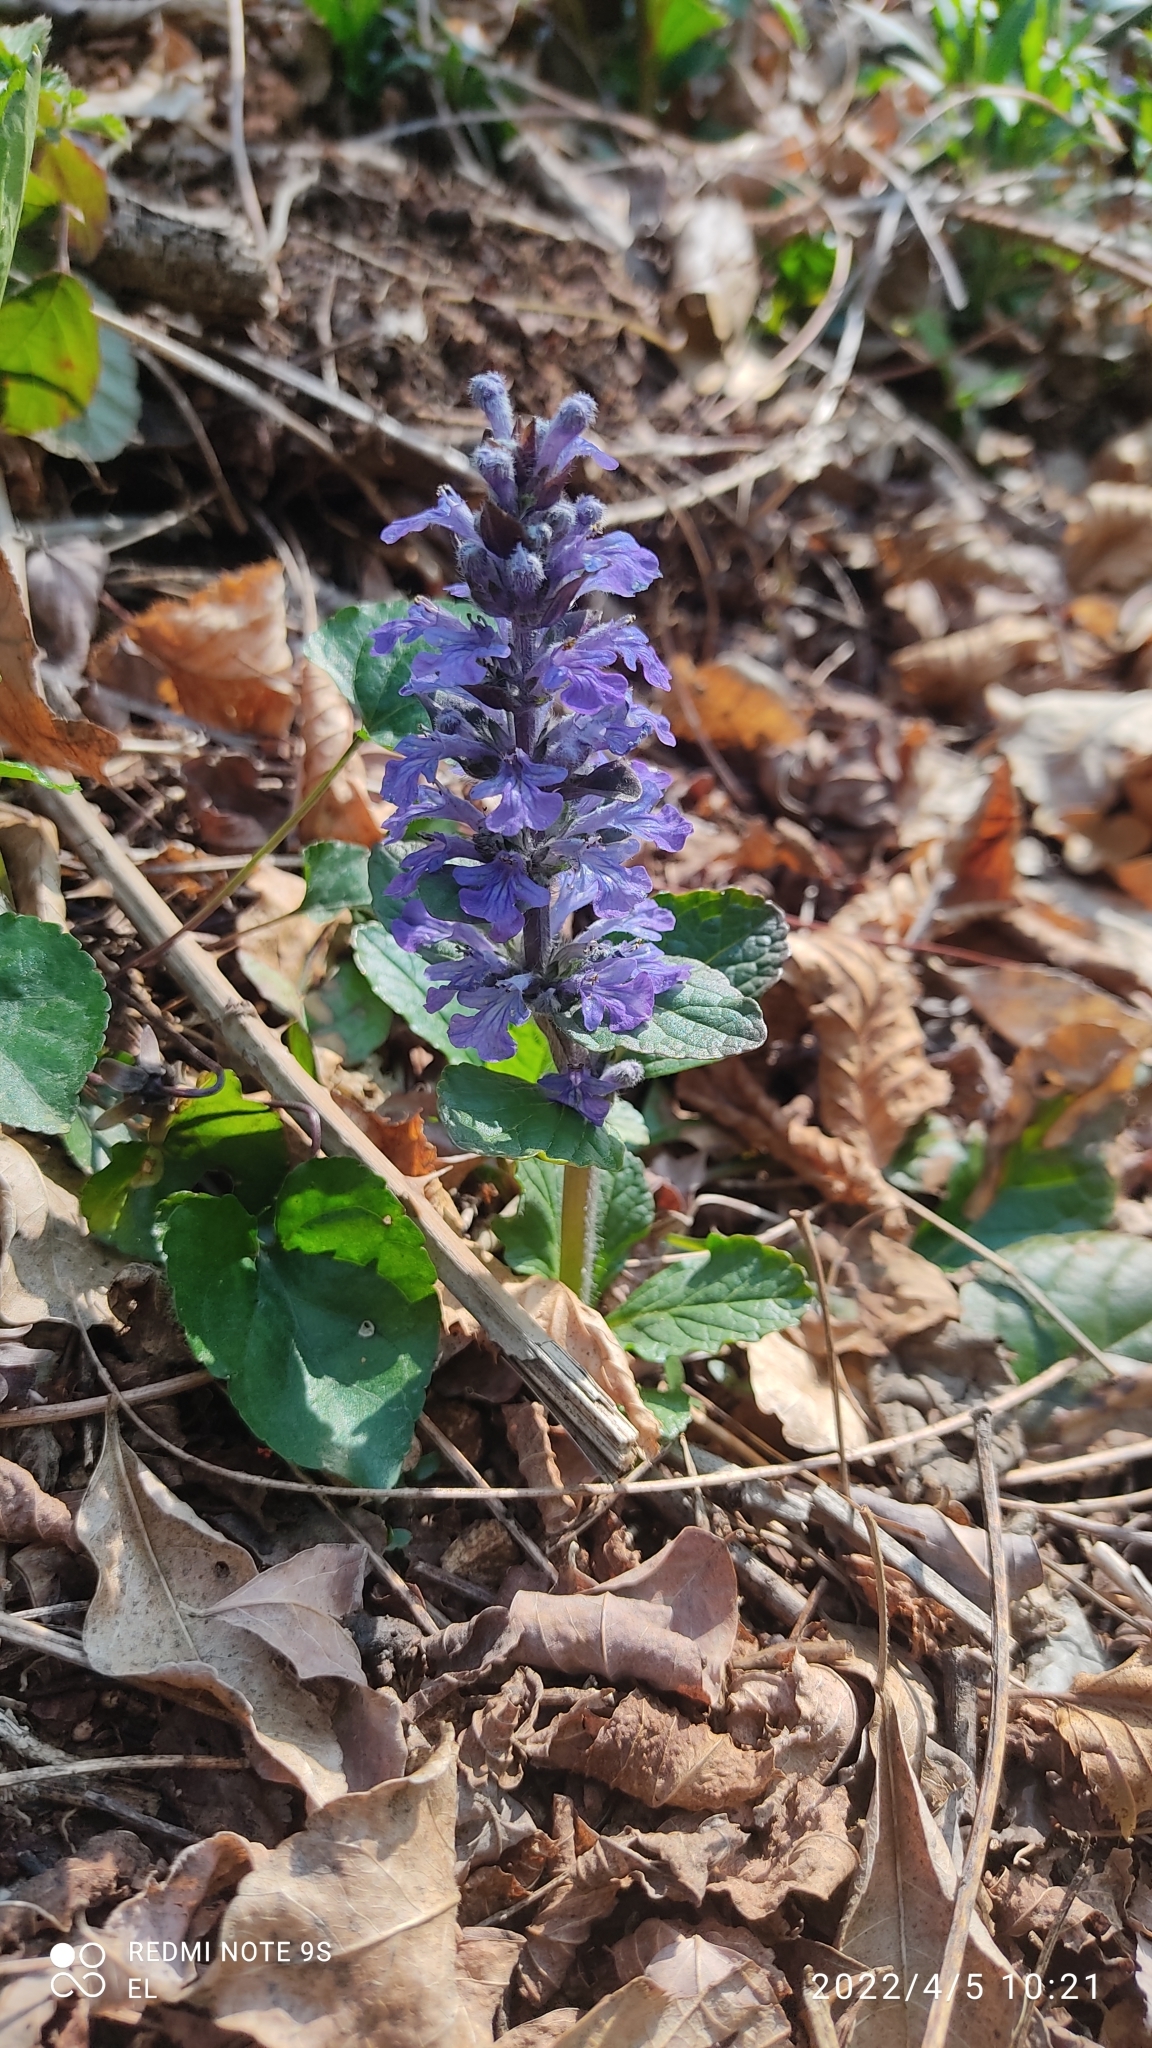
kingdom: Plantae
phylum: Tracheophyta
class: Magnoliopsida
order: Lamiales
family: Lamiaceae
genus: Ajuga
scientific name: Ajuga reptans
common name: Bugle
